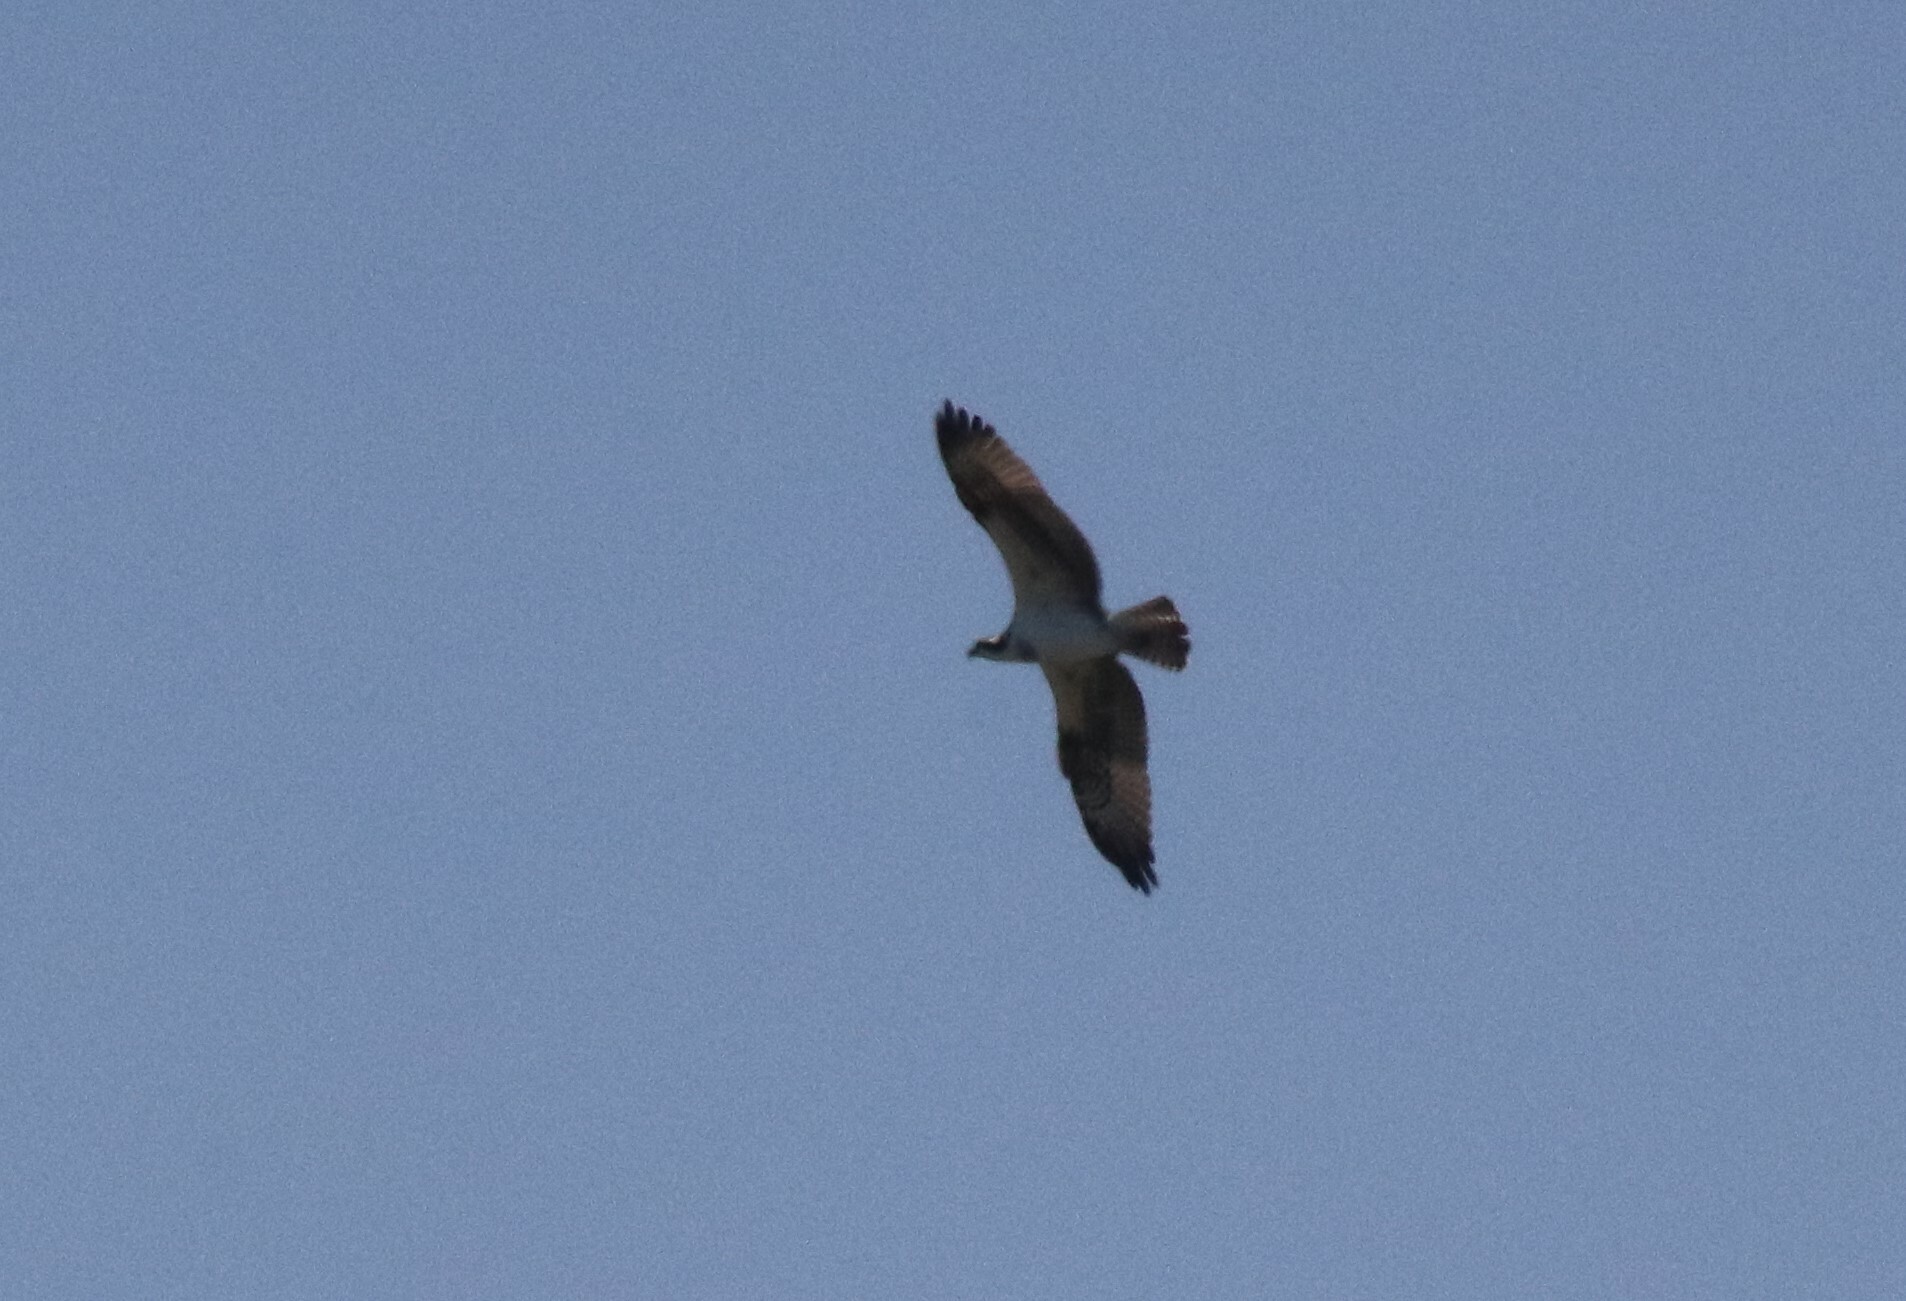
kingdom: Animalia
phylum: Chordata
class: Aves
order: Accipitriformes
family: Pandionidae
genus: Pandion
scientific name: Pandion haliaetus
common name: Osprey
